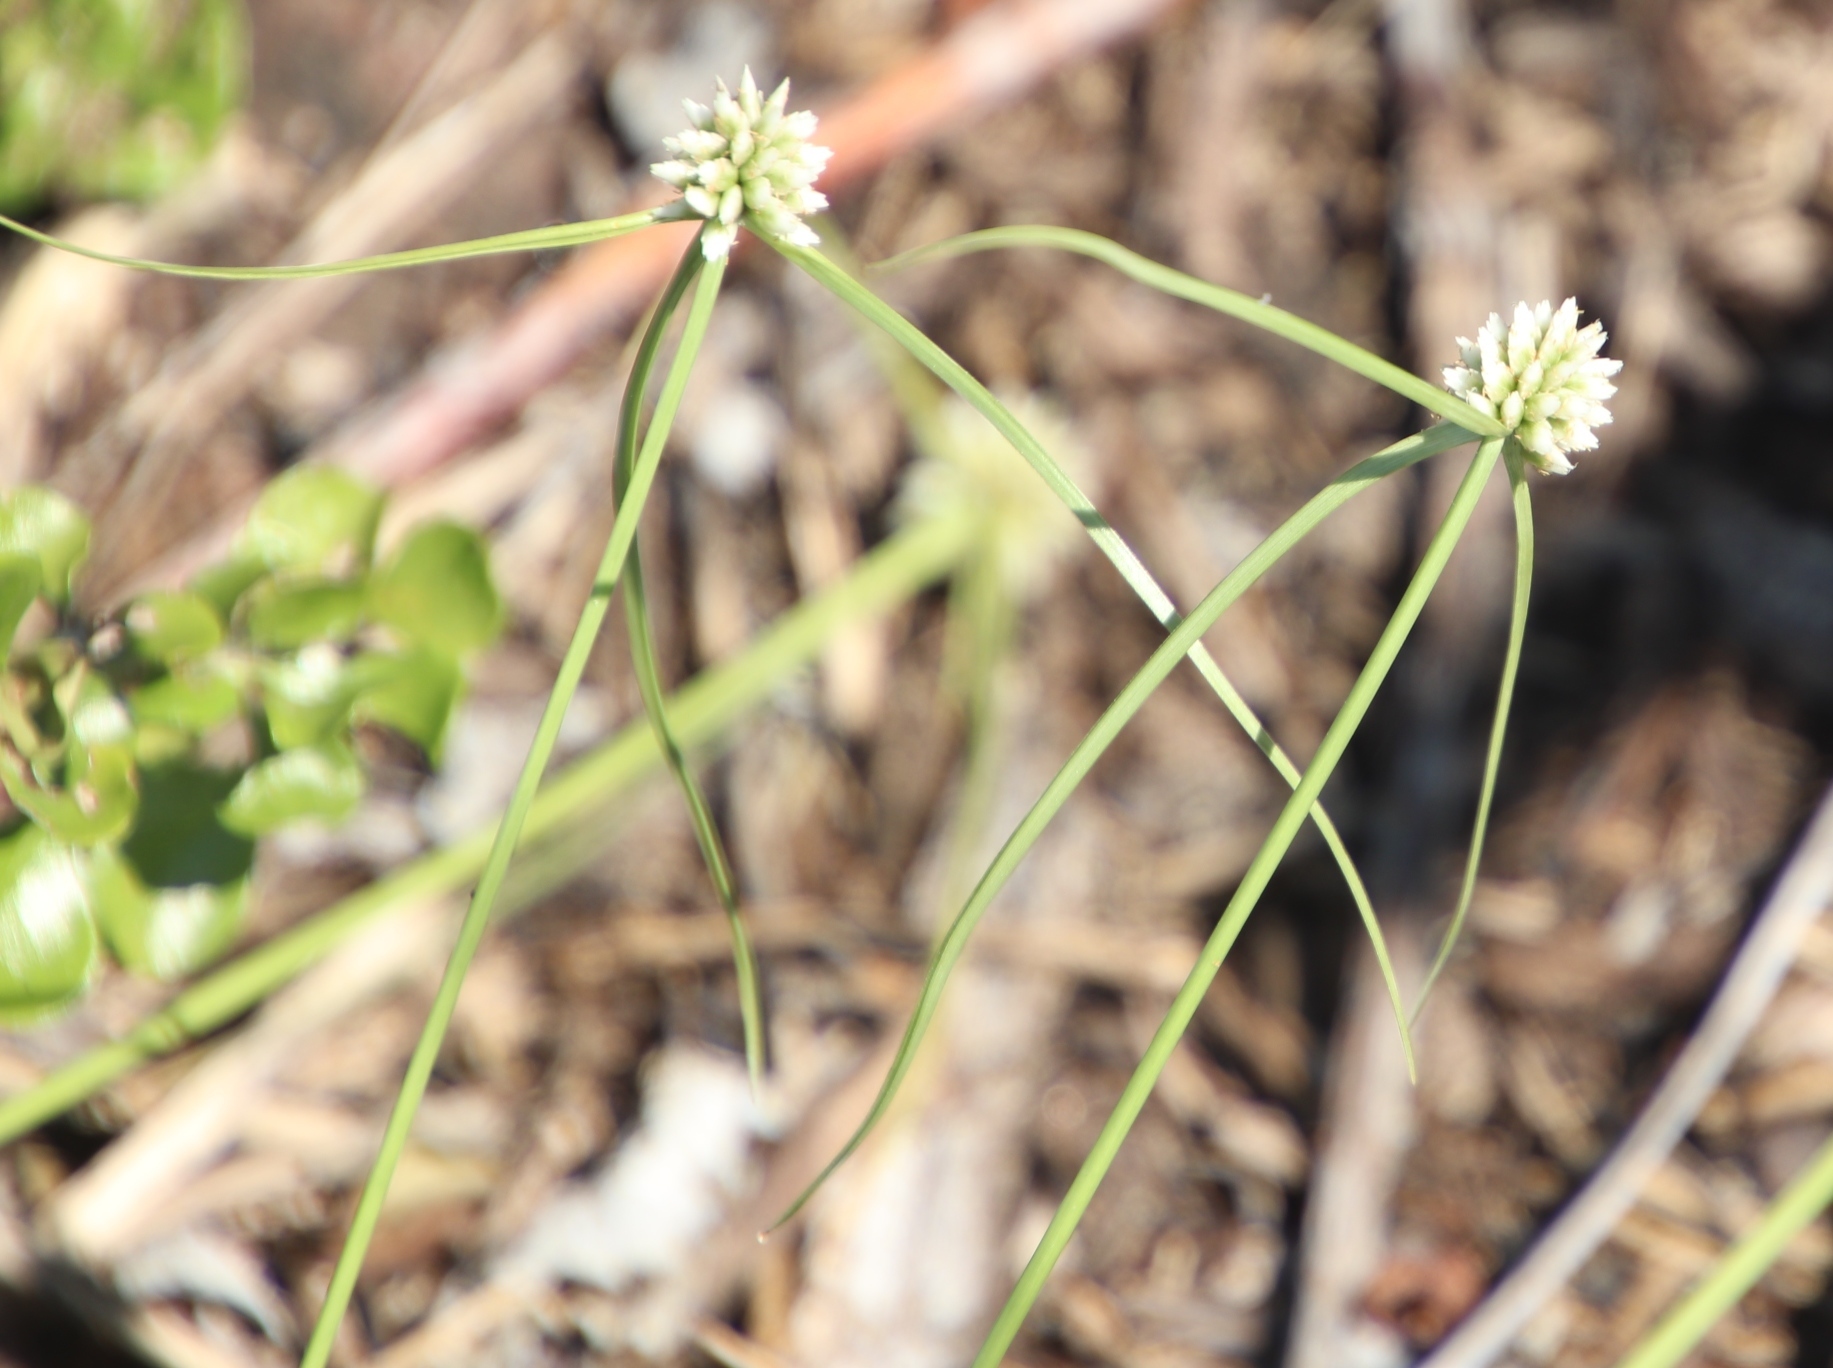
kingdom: Plantae
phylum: Tracheophyta
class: Liliopsida
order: Poales
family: Cyperaceae
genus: Cyperus
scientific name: Cyperus dubius
